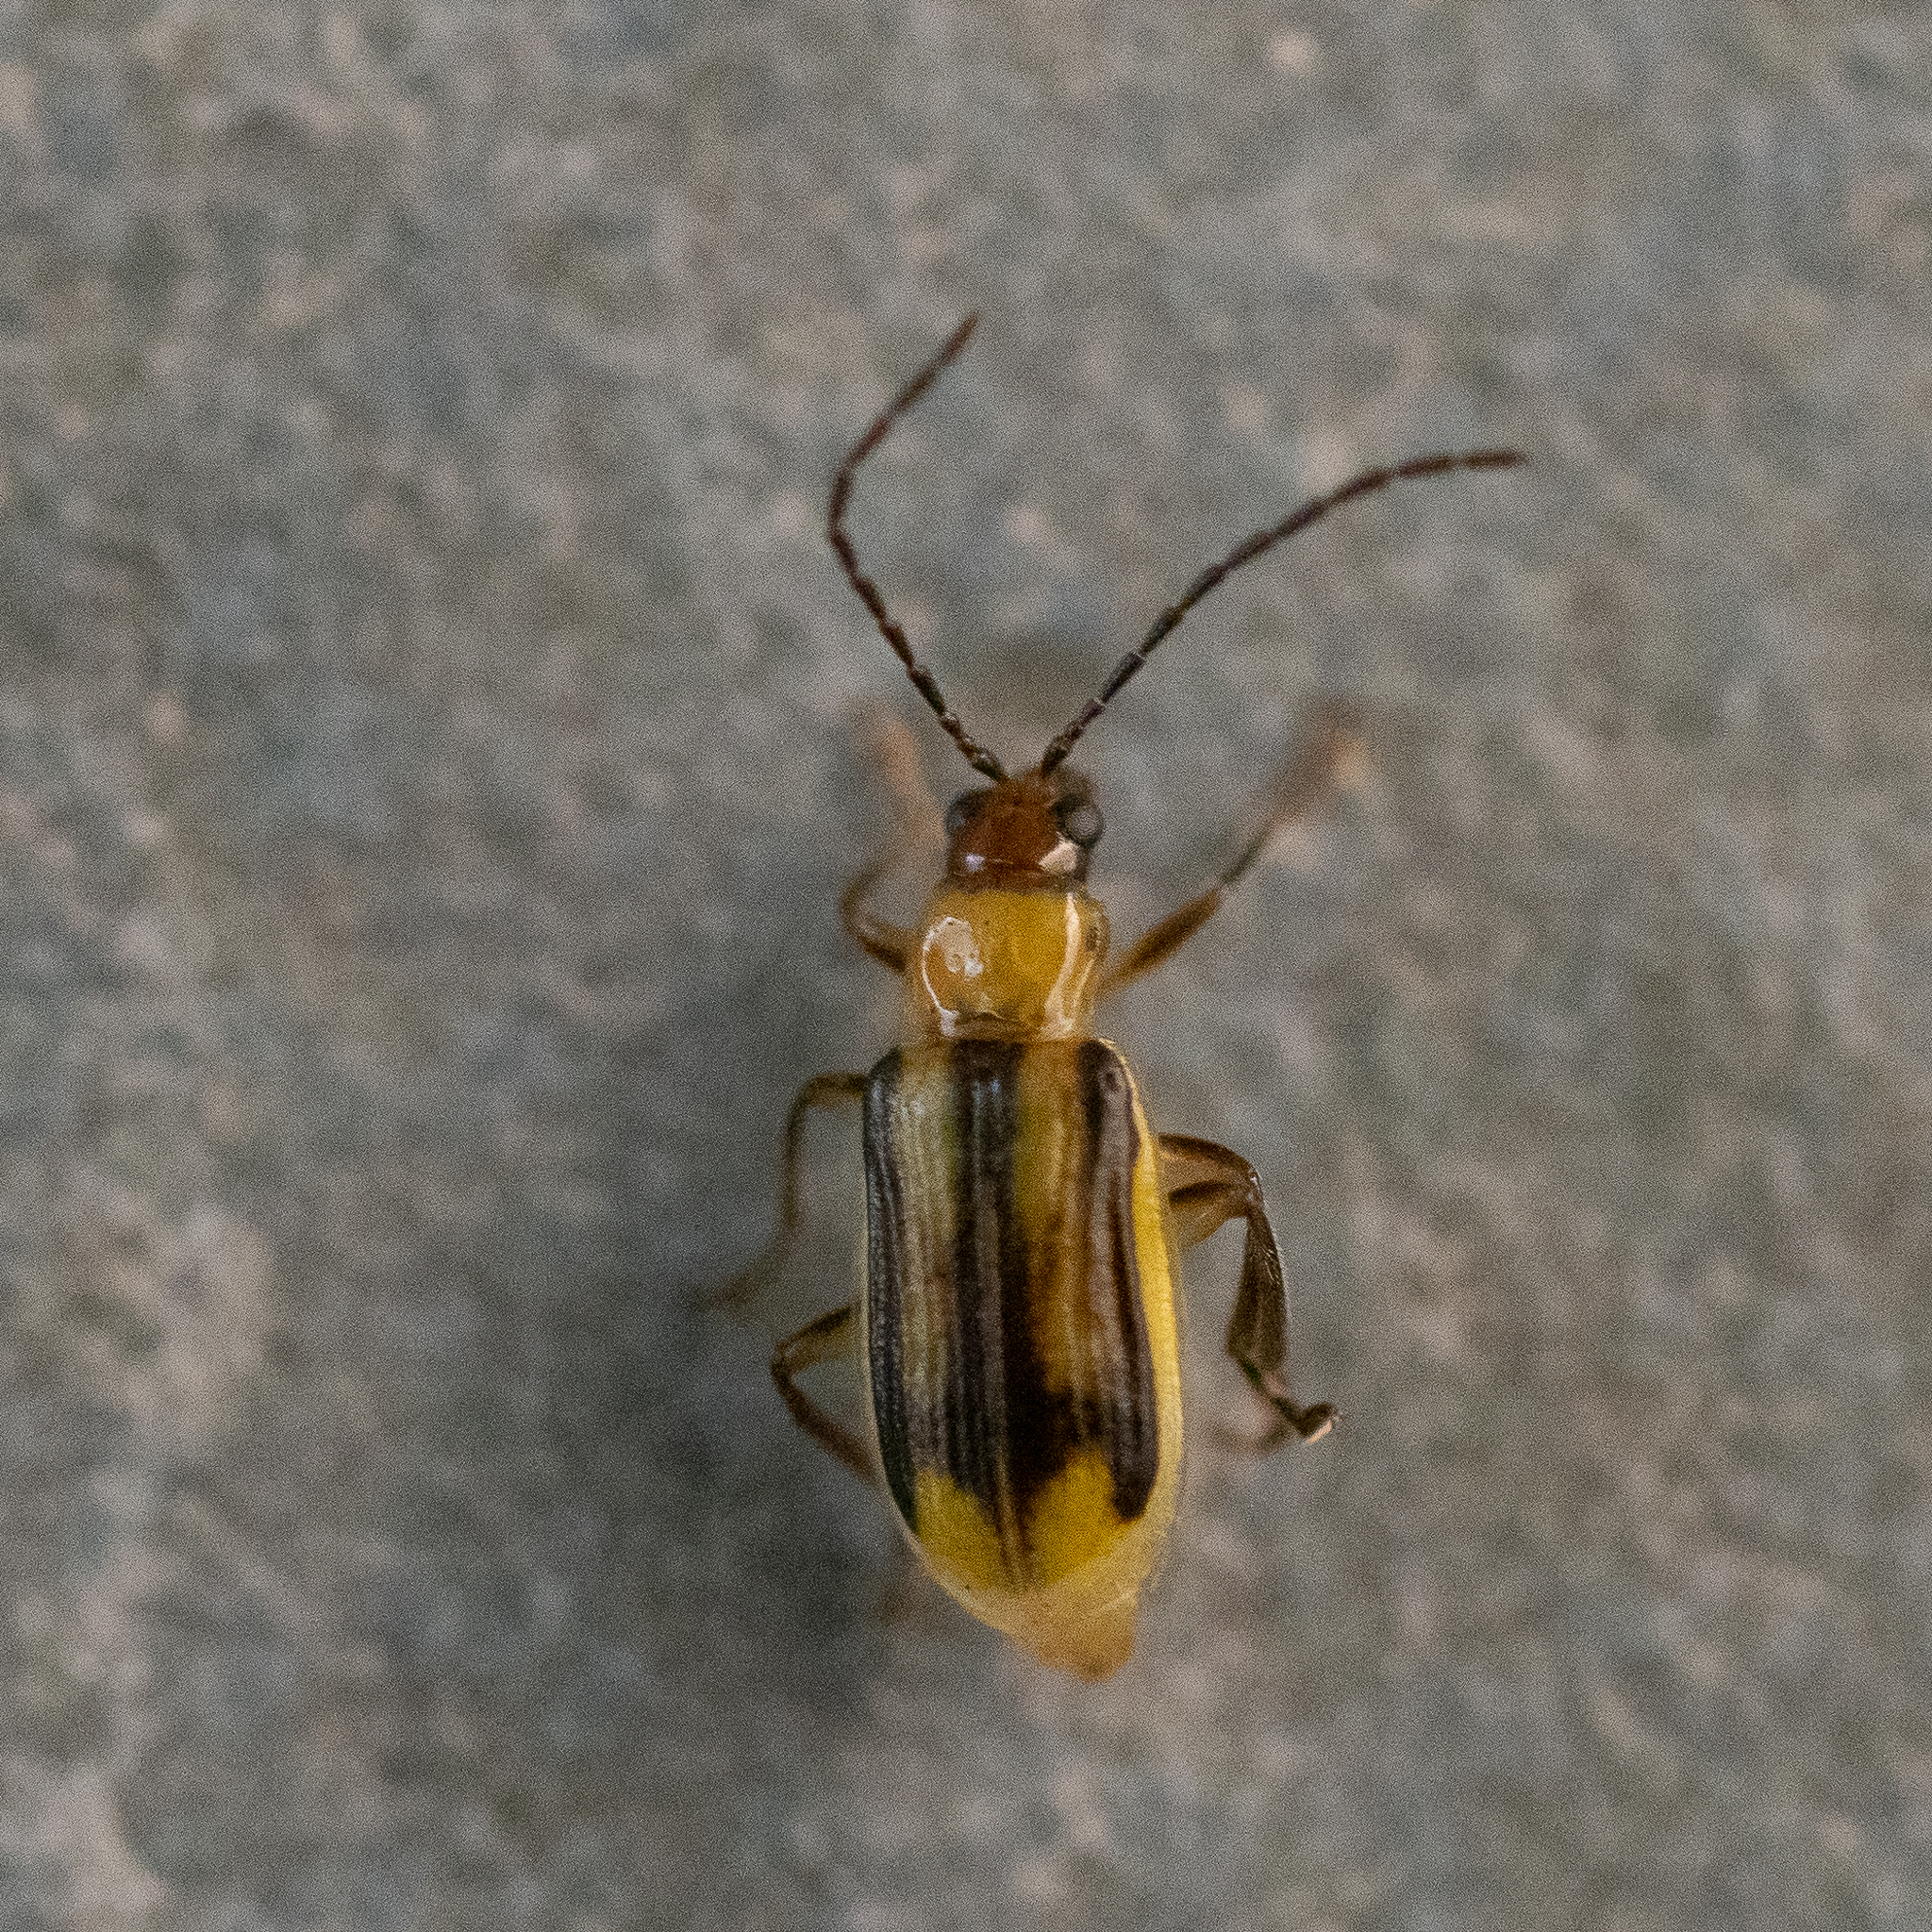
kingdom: Animalia
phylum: Arthropoda
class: Insecta
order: Coleoptera
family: Chrysomelidae
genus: Diabrotica
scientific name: Diabrotica virgifera
